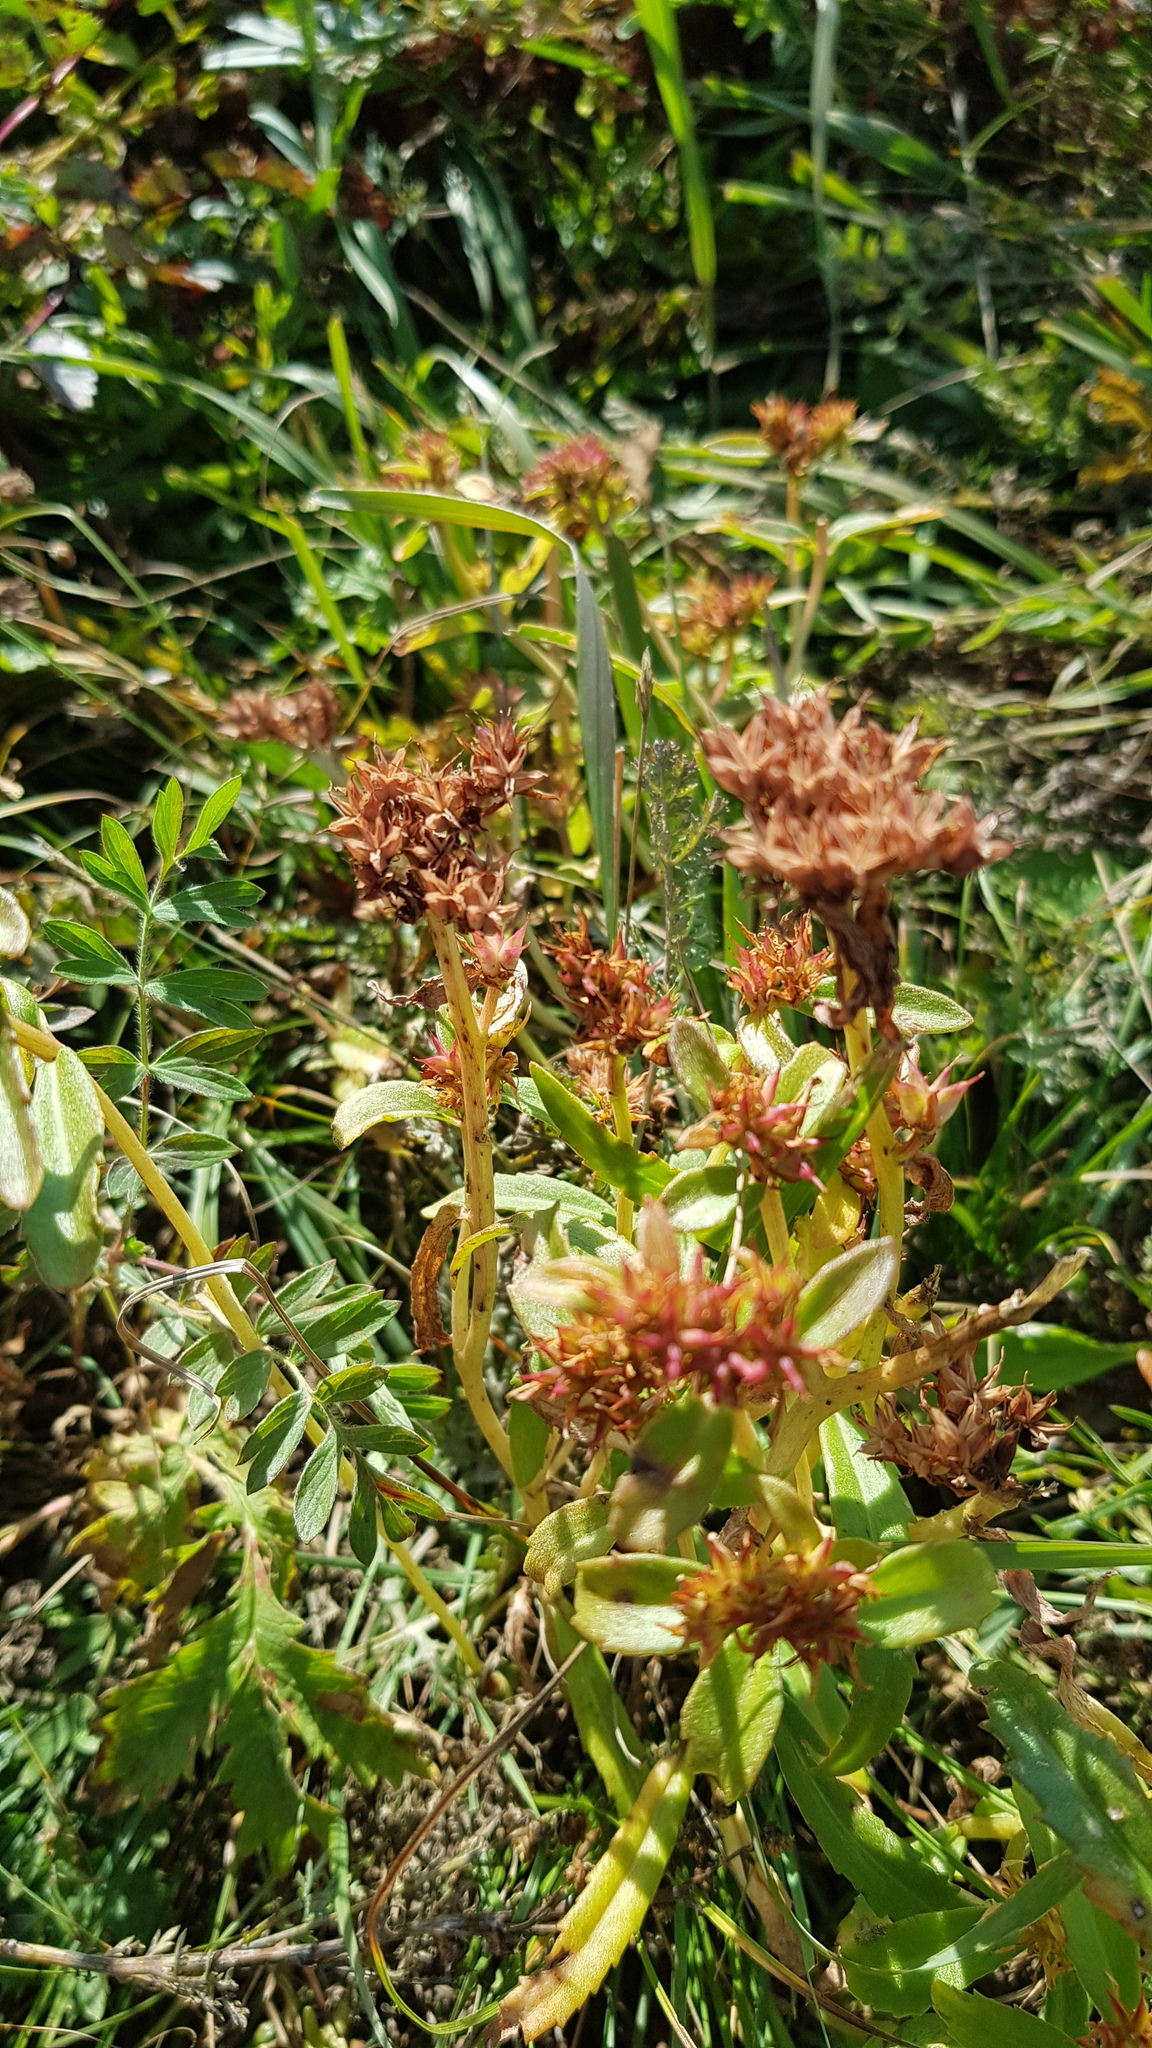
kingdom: Plantae
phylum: Tracheophyta
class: Magnoliopsida
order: Saxifragales
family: Crassulaceae
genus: Phedimus
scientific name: Phedimus aizoon
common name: Orpin aizoon
